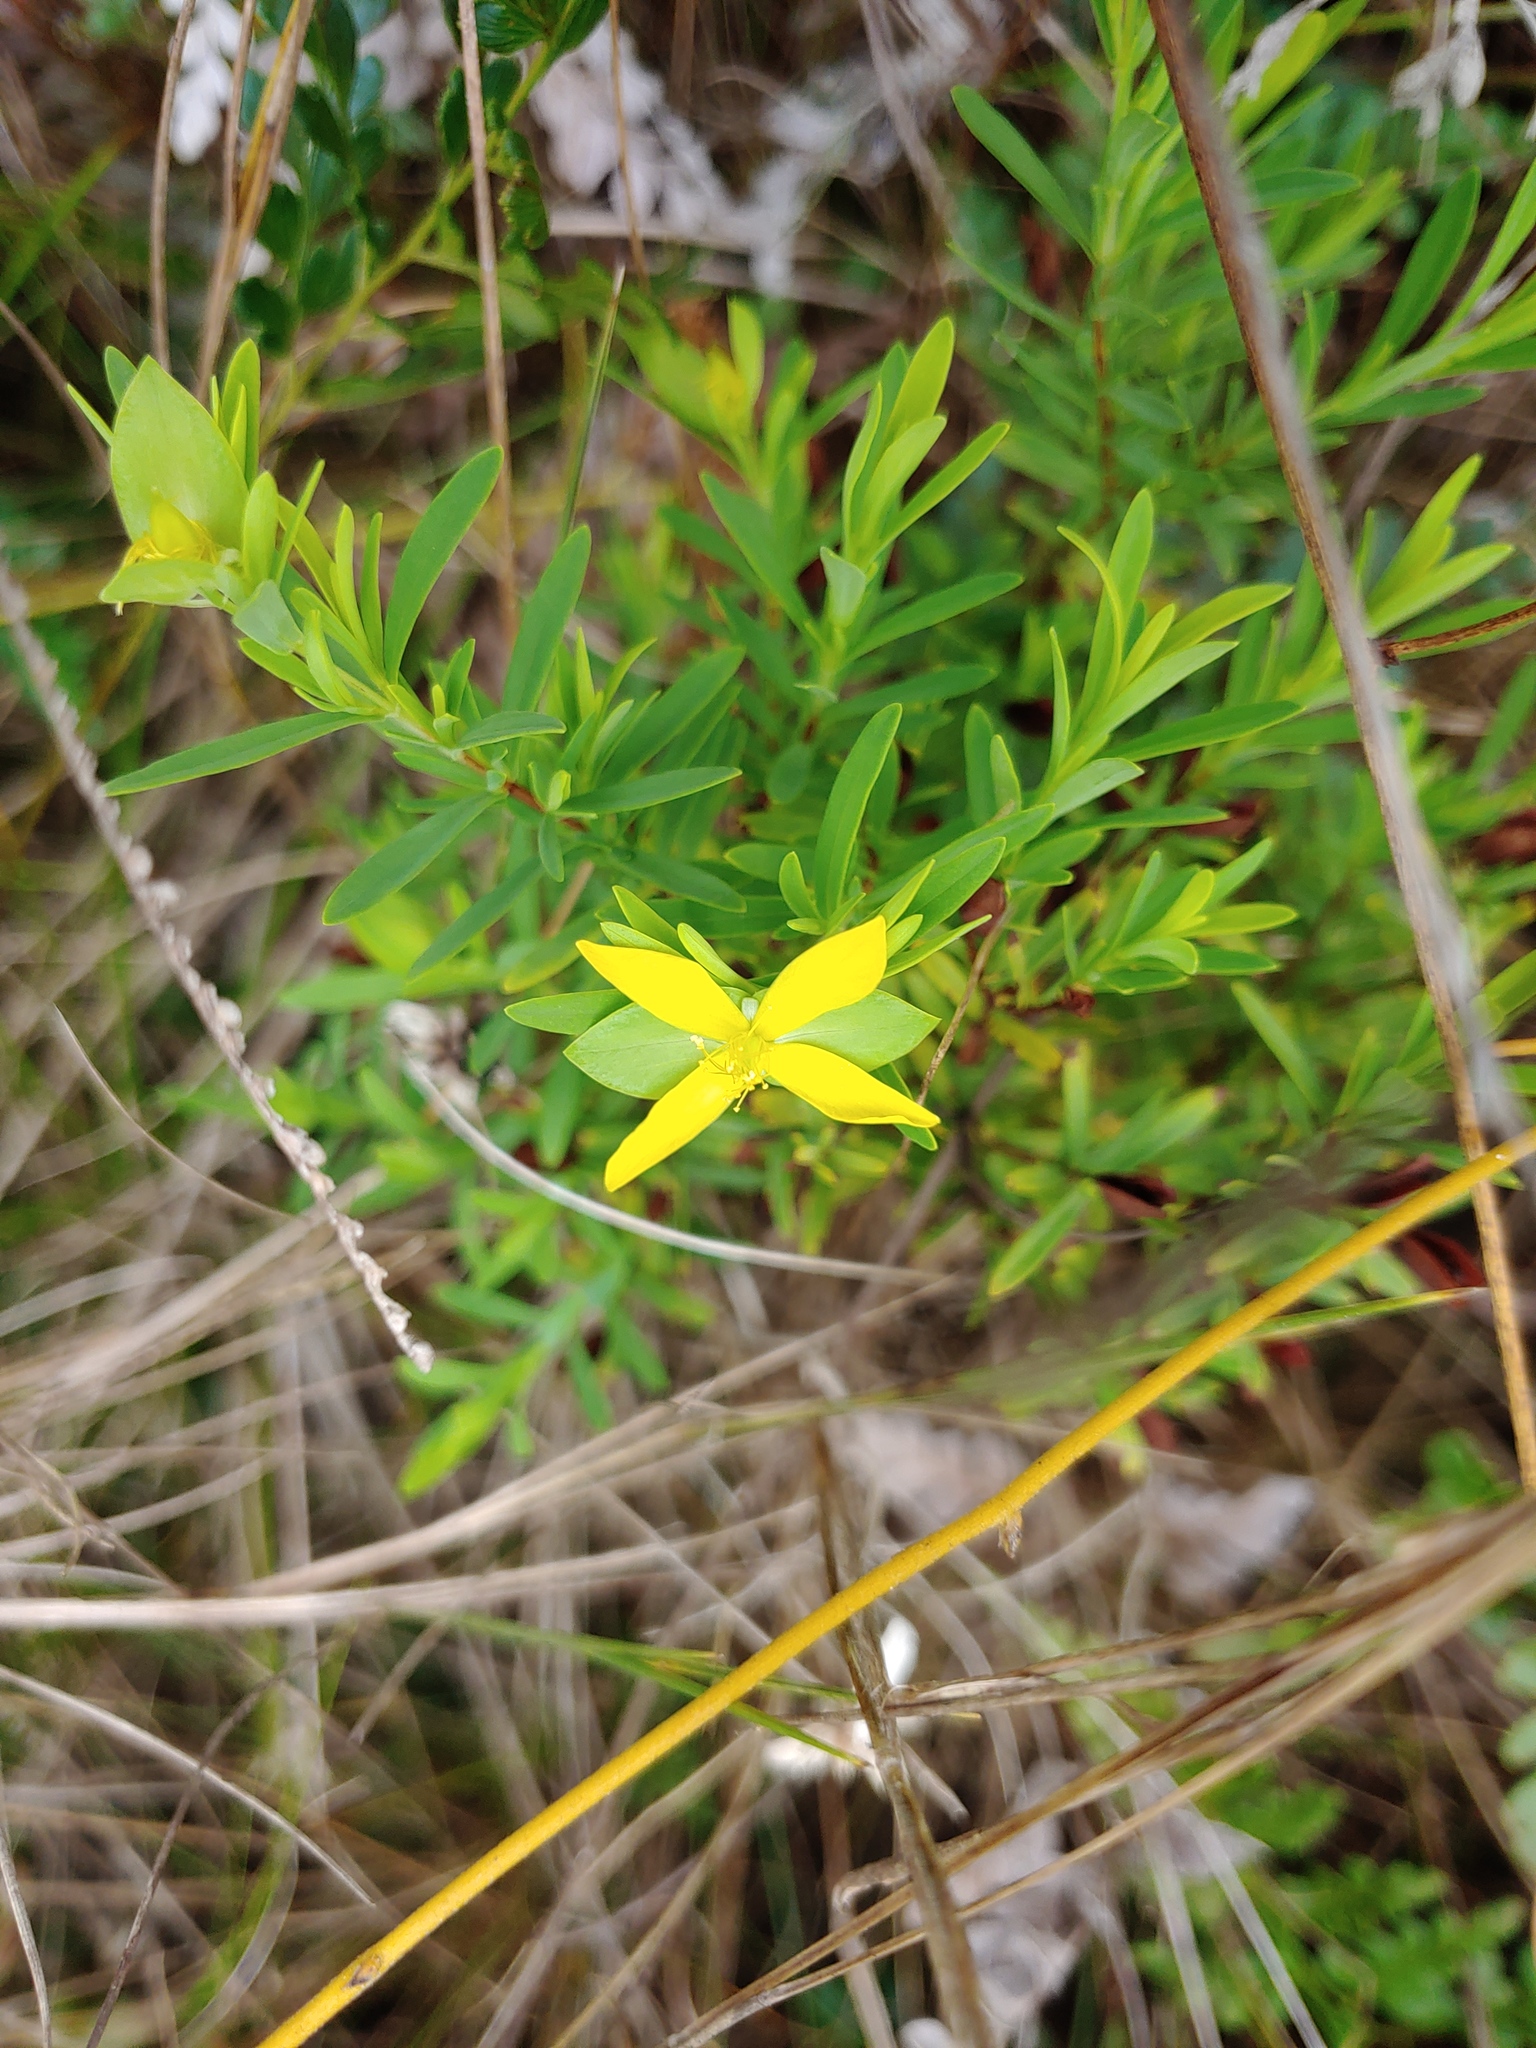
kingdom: Plantae
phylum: Tracheophyta
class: Magnoliopsida
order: Malpighiales
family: Hypericaceae
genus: Hypericum
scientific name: Hypericum hypericoides
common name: St. andrew's cross
